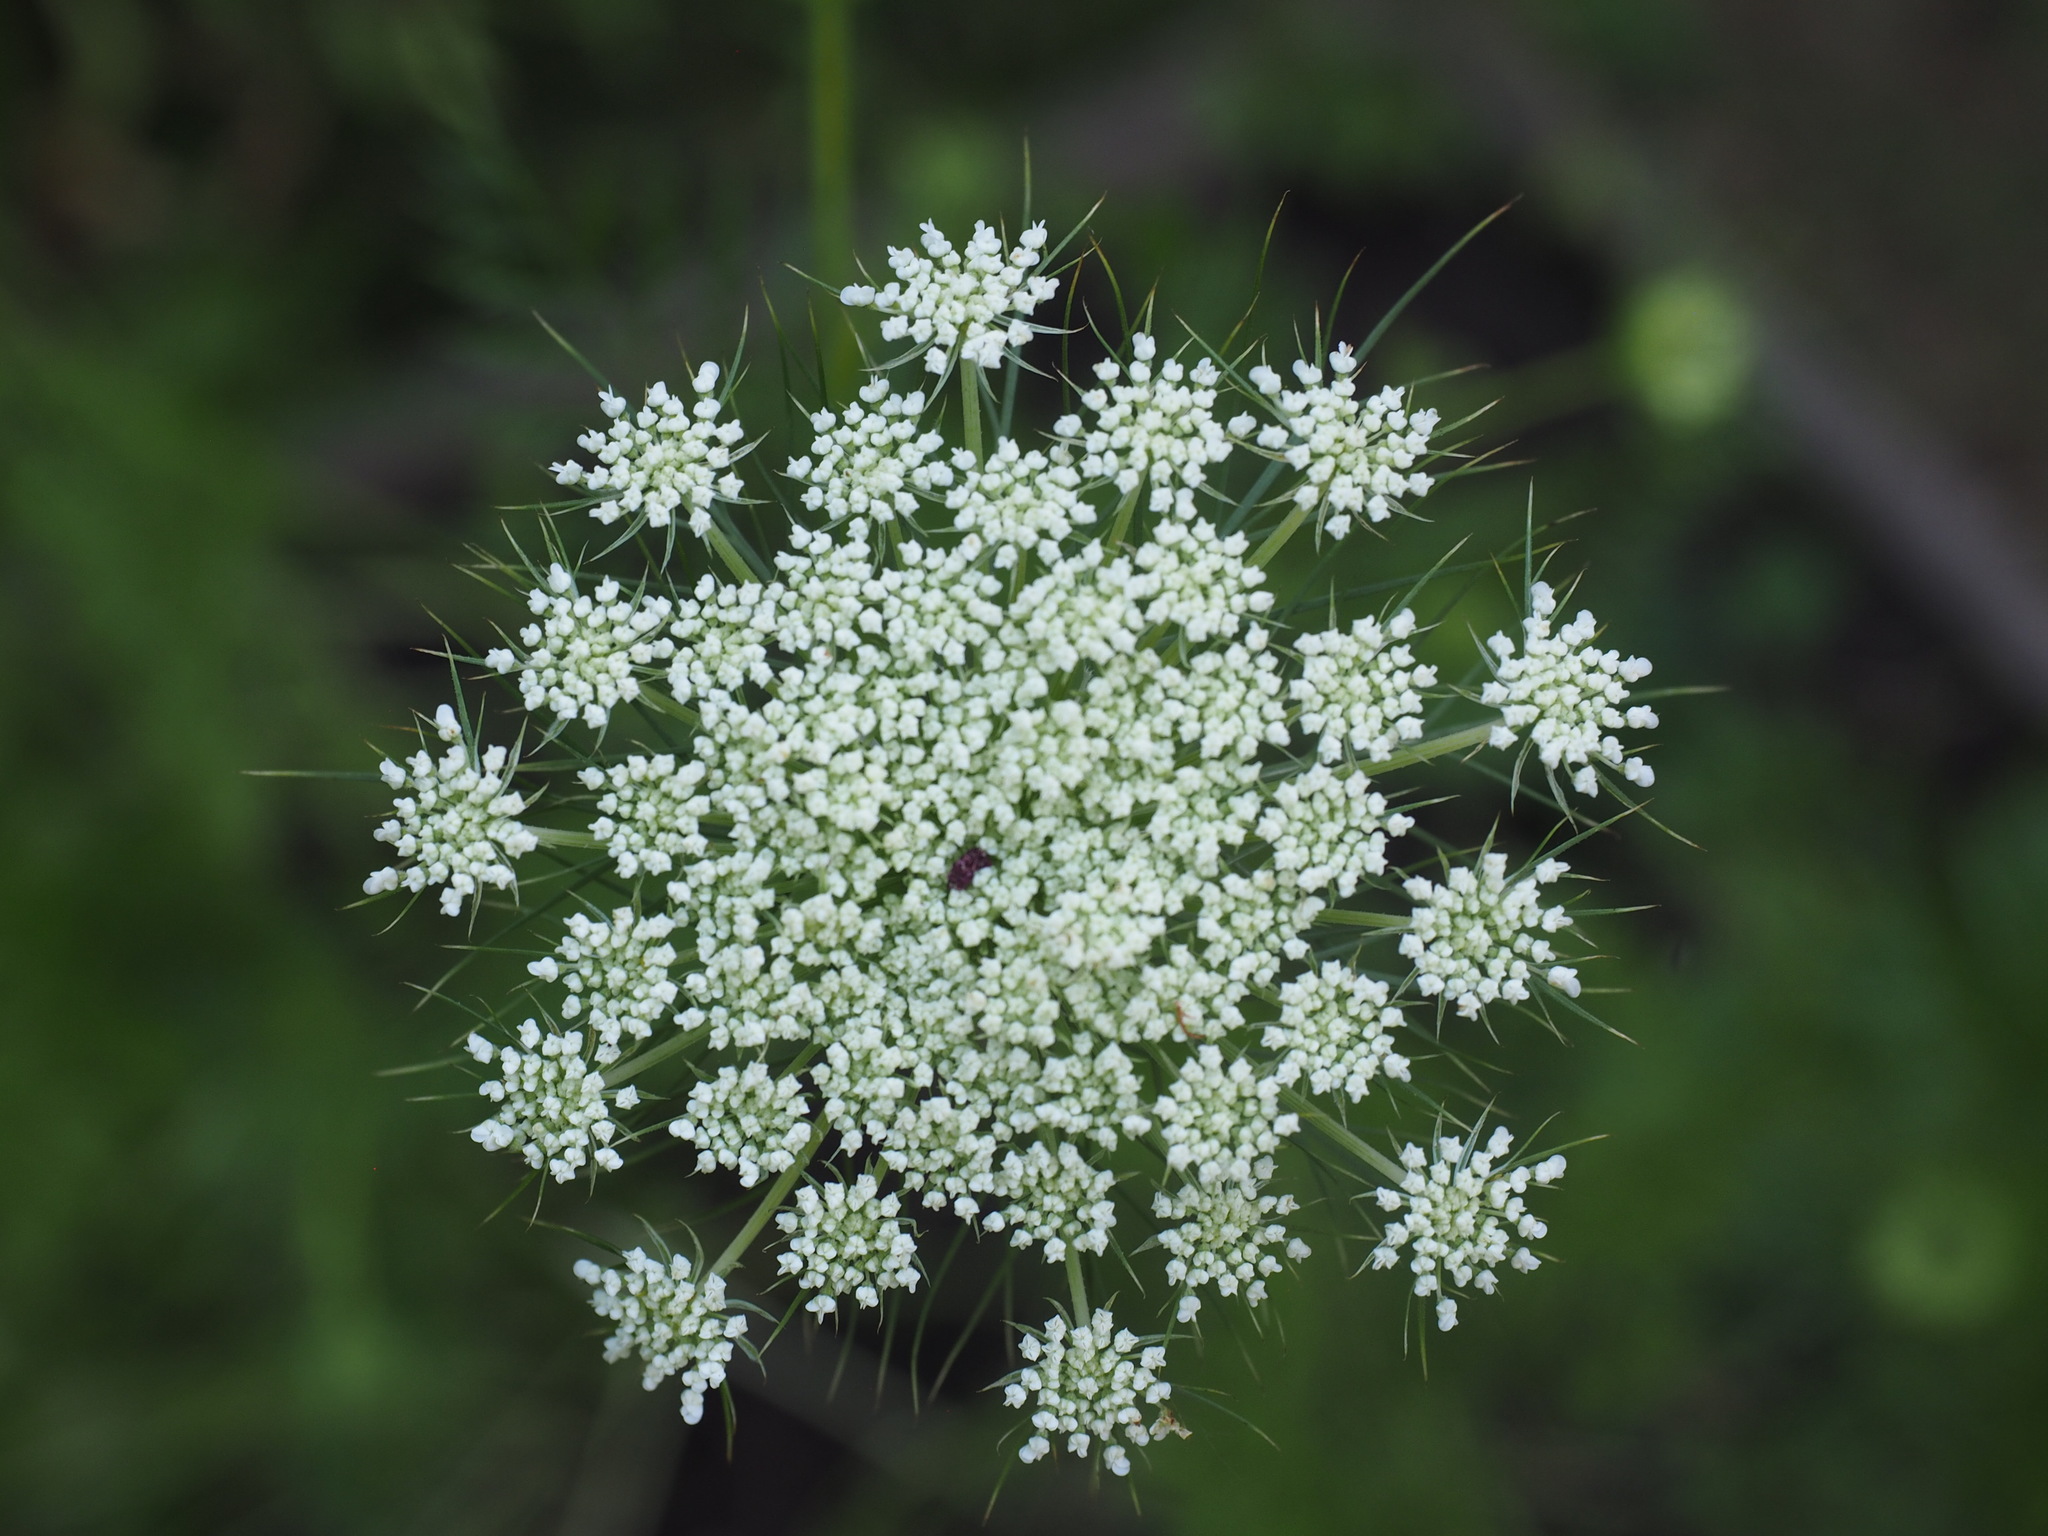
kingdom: Plantae
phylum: Tracheophyta
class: Magnoliopsida
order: Apiales
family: Apiaceae
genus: Daucus
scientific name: Daucus carota
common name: Wild carrot
